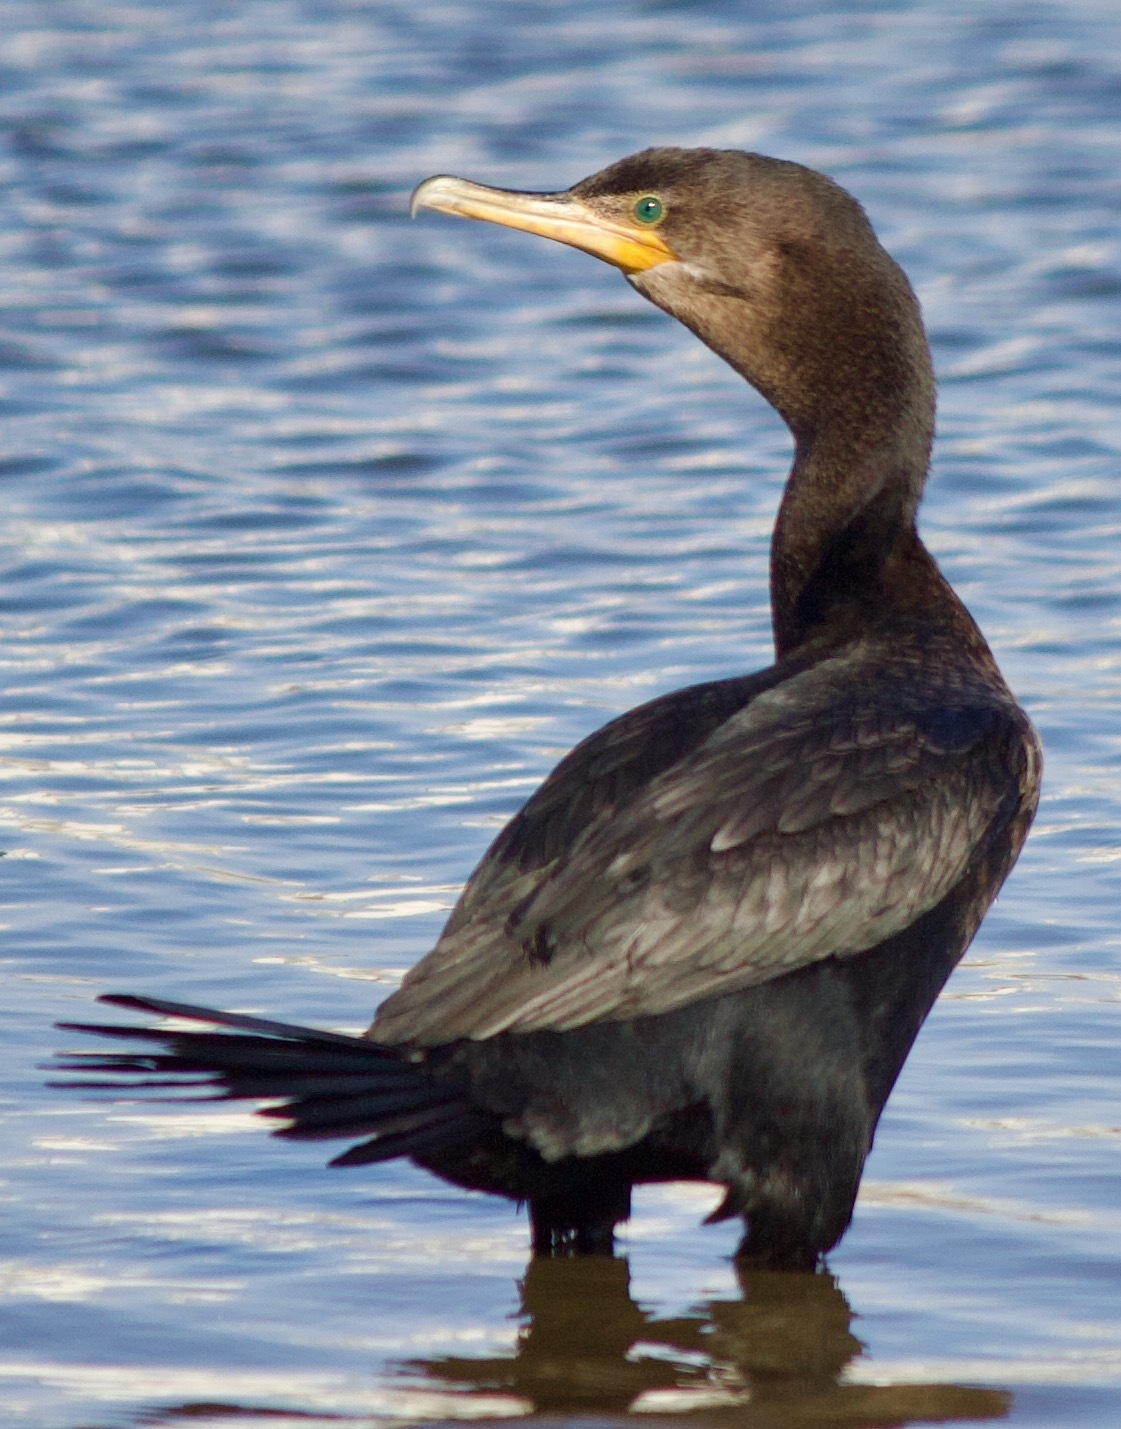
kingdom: Animalia
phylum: Chordata
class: Aves
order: Suliformes
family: Phalacrocoracidae
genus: Phalacrocorax
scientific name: Phalacrocorax brasilianus
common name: Neotropic cormorant
